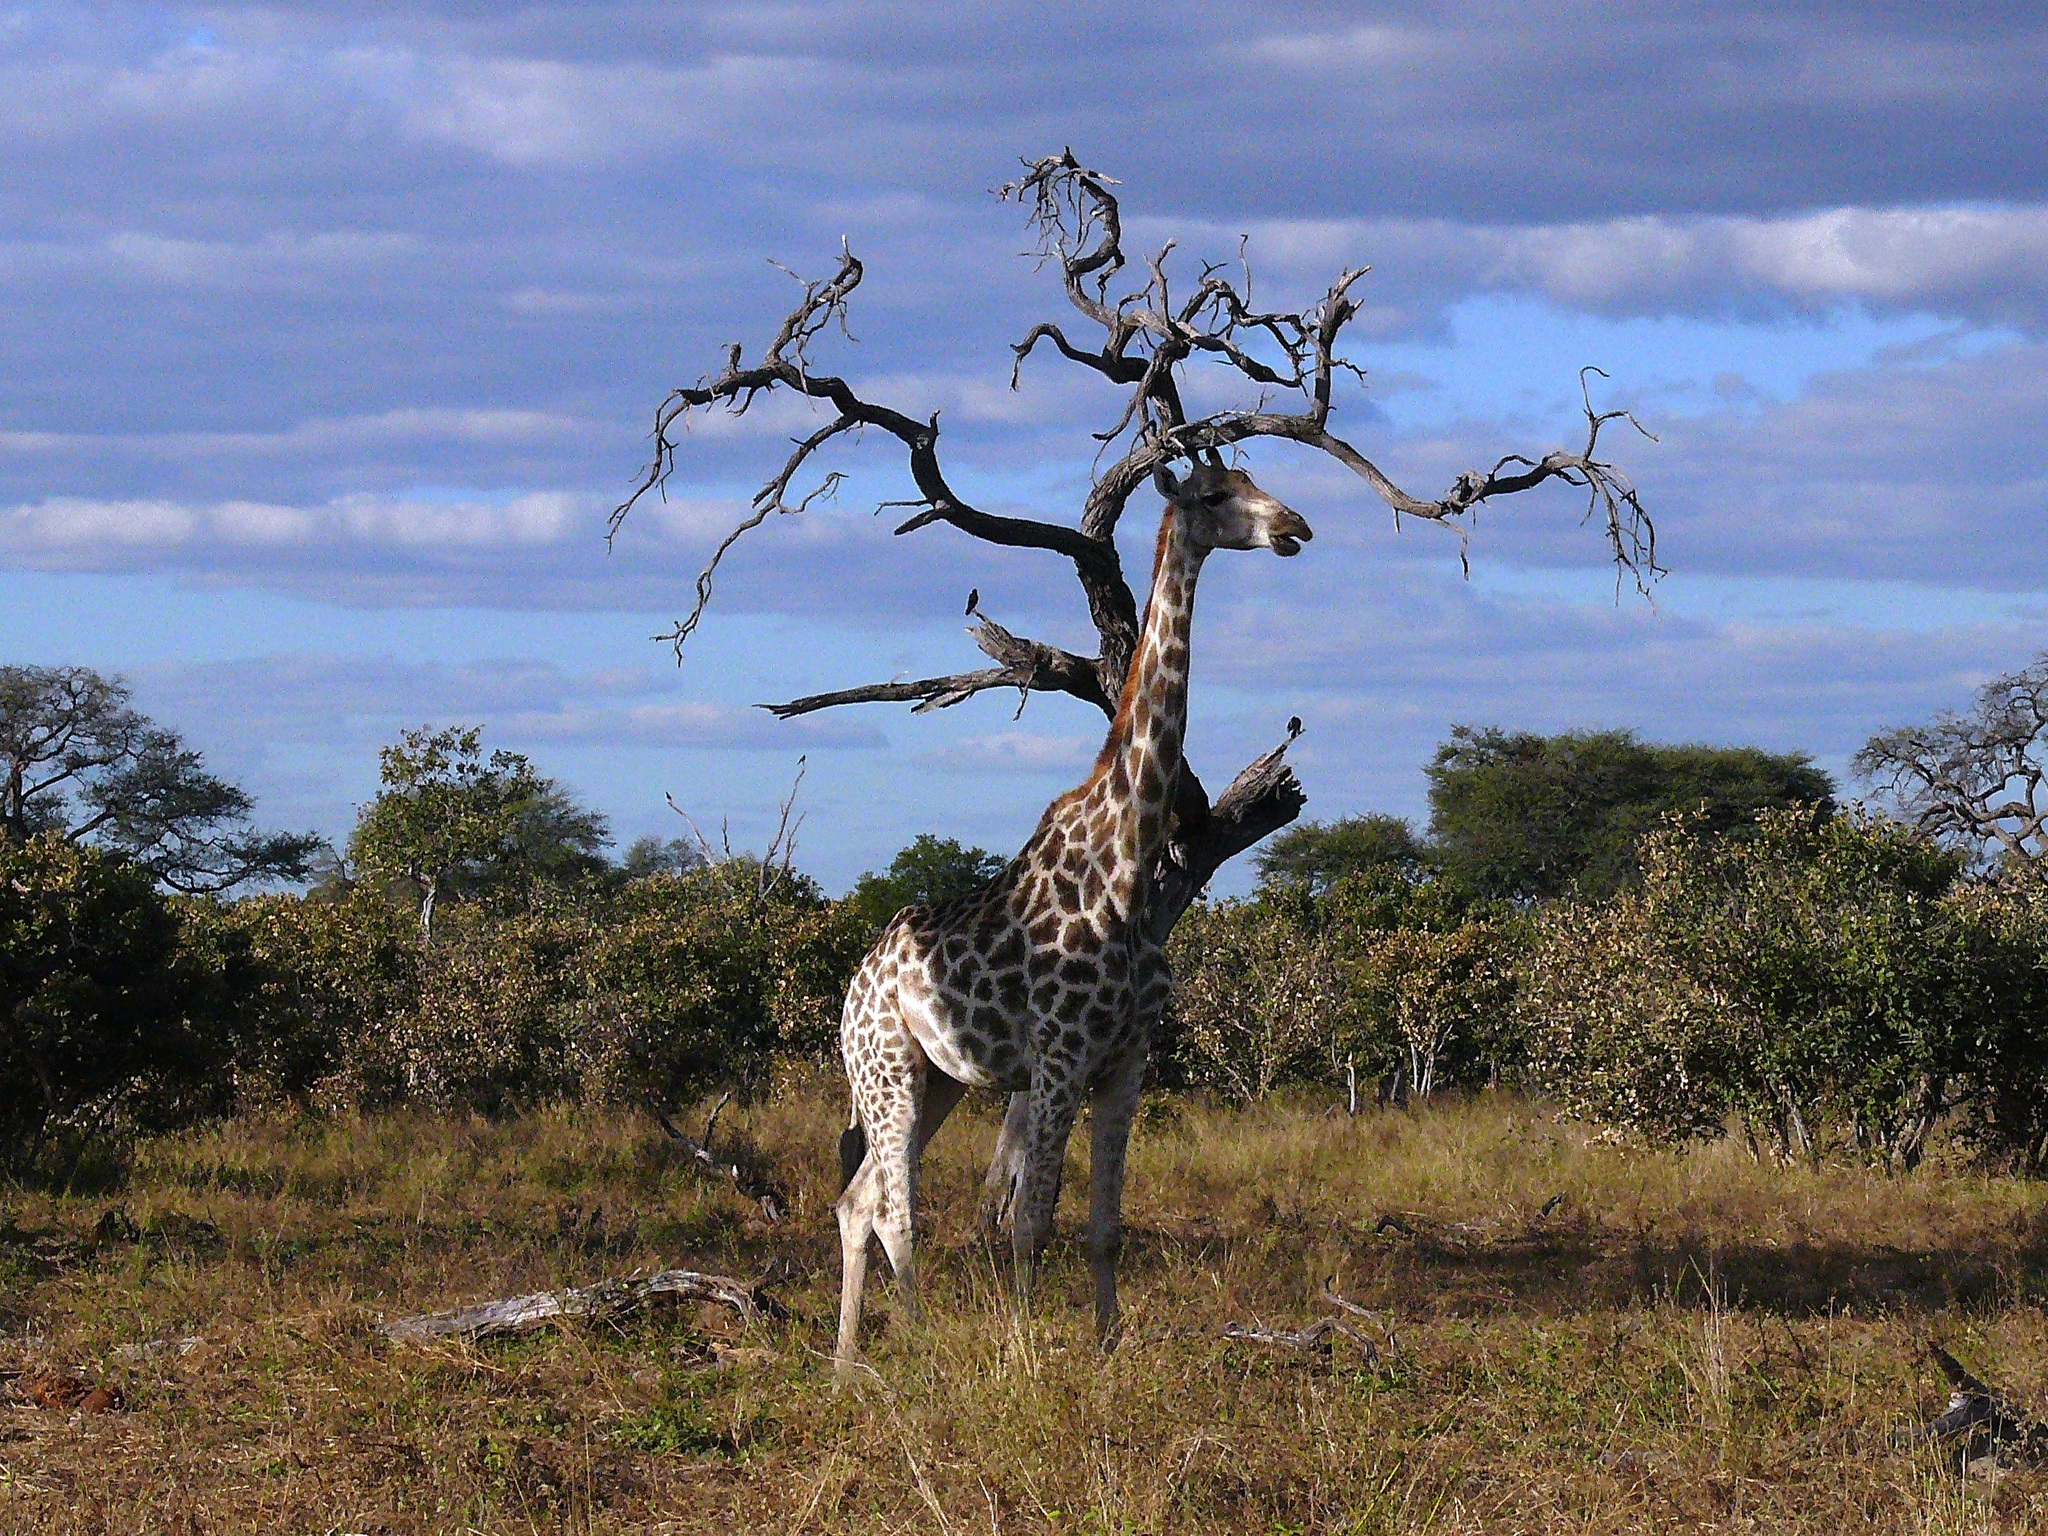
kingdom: Animalia
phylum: Chordata
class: Mammalia
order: Artiodactyla
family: Giraffidae
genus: Giraffa
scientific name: Giraffa giraffa
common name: Southern giraffe
